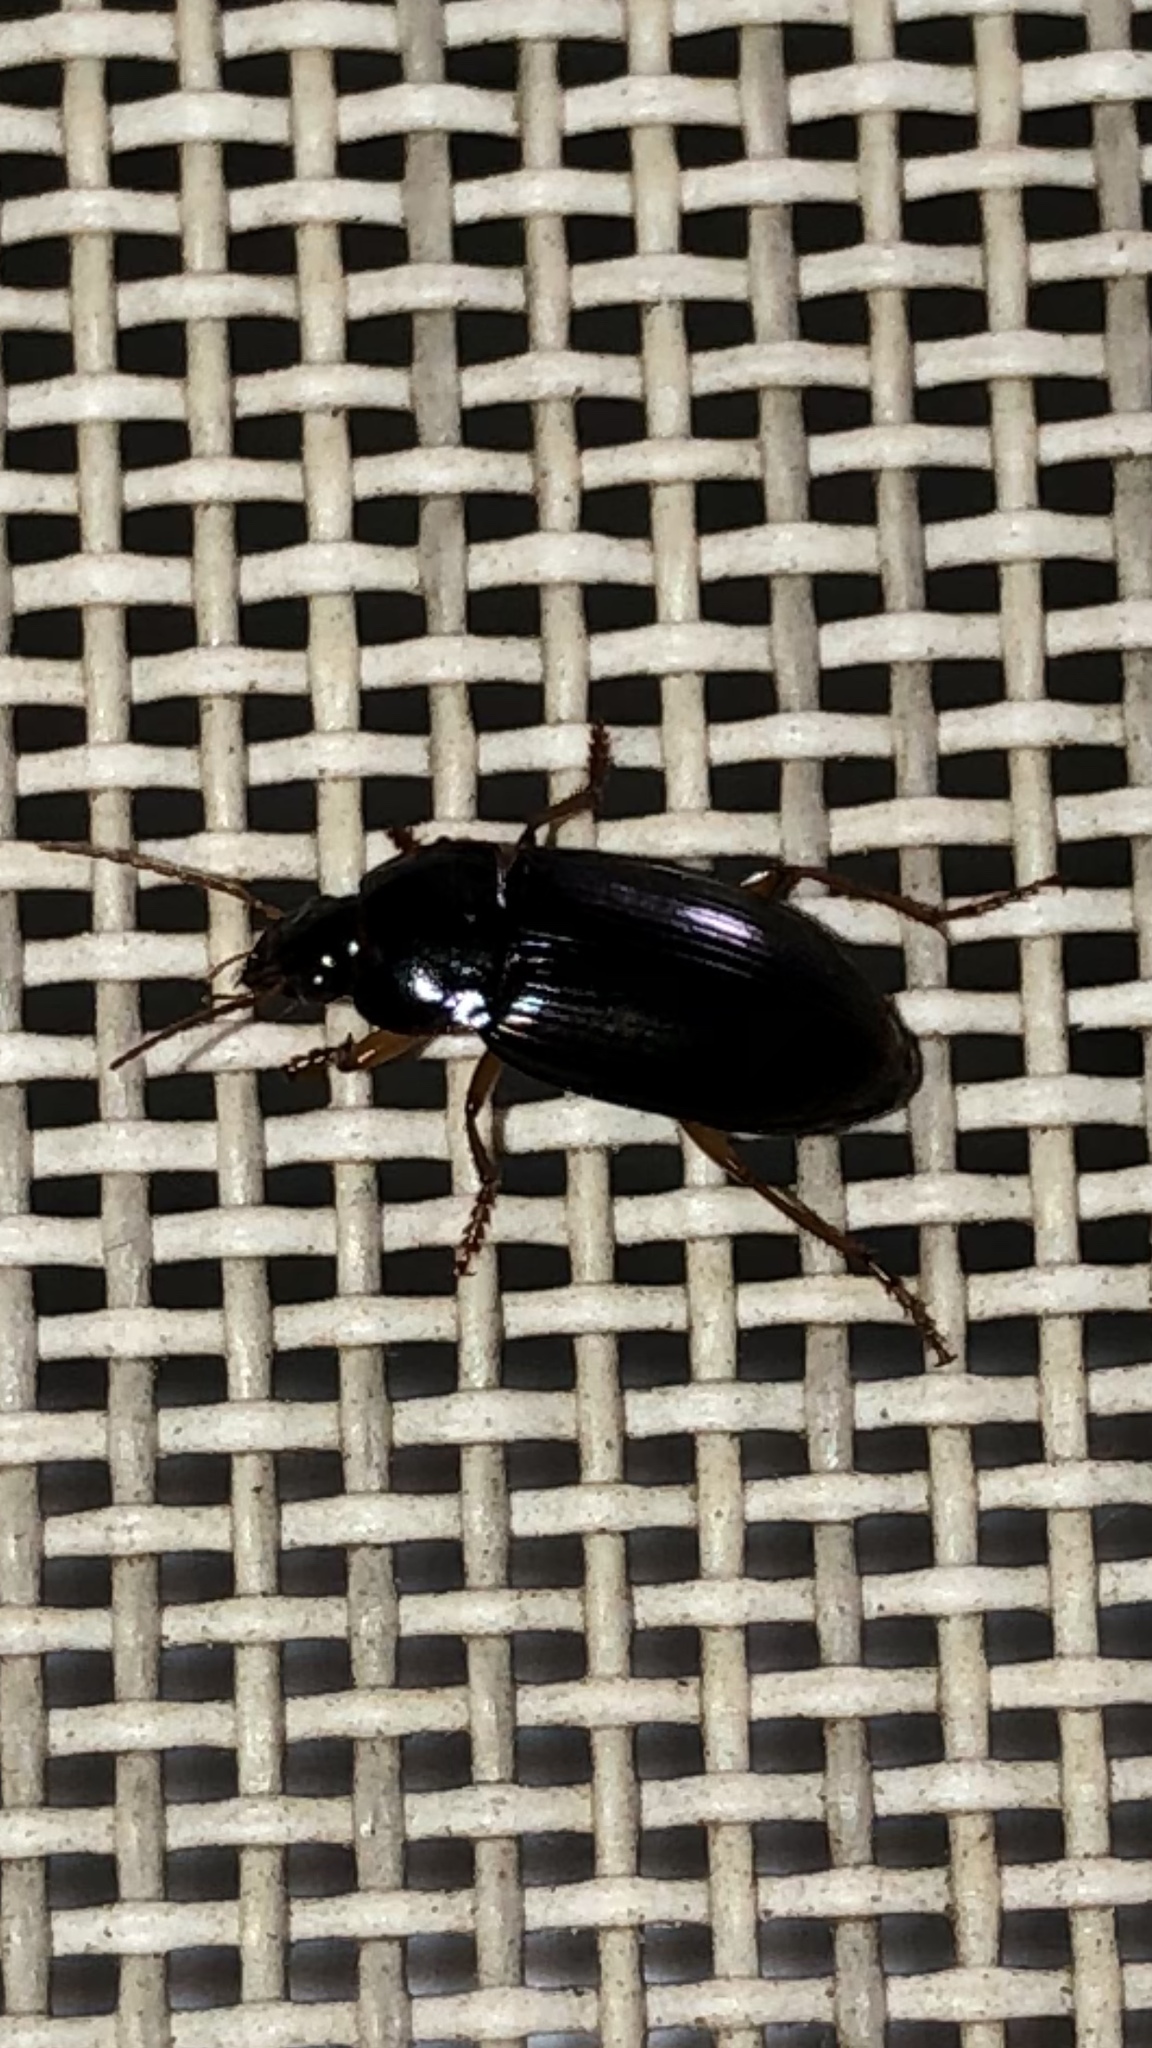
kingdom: Animalia
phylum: Arthropoda
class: Insecta
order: Coleoptera
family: Carabidae
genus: Notiobia
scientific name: Notiobia terminata
